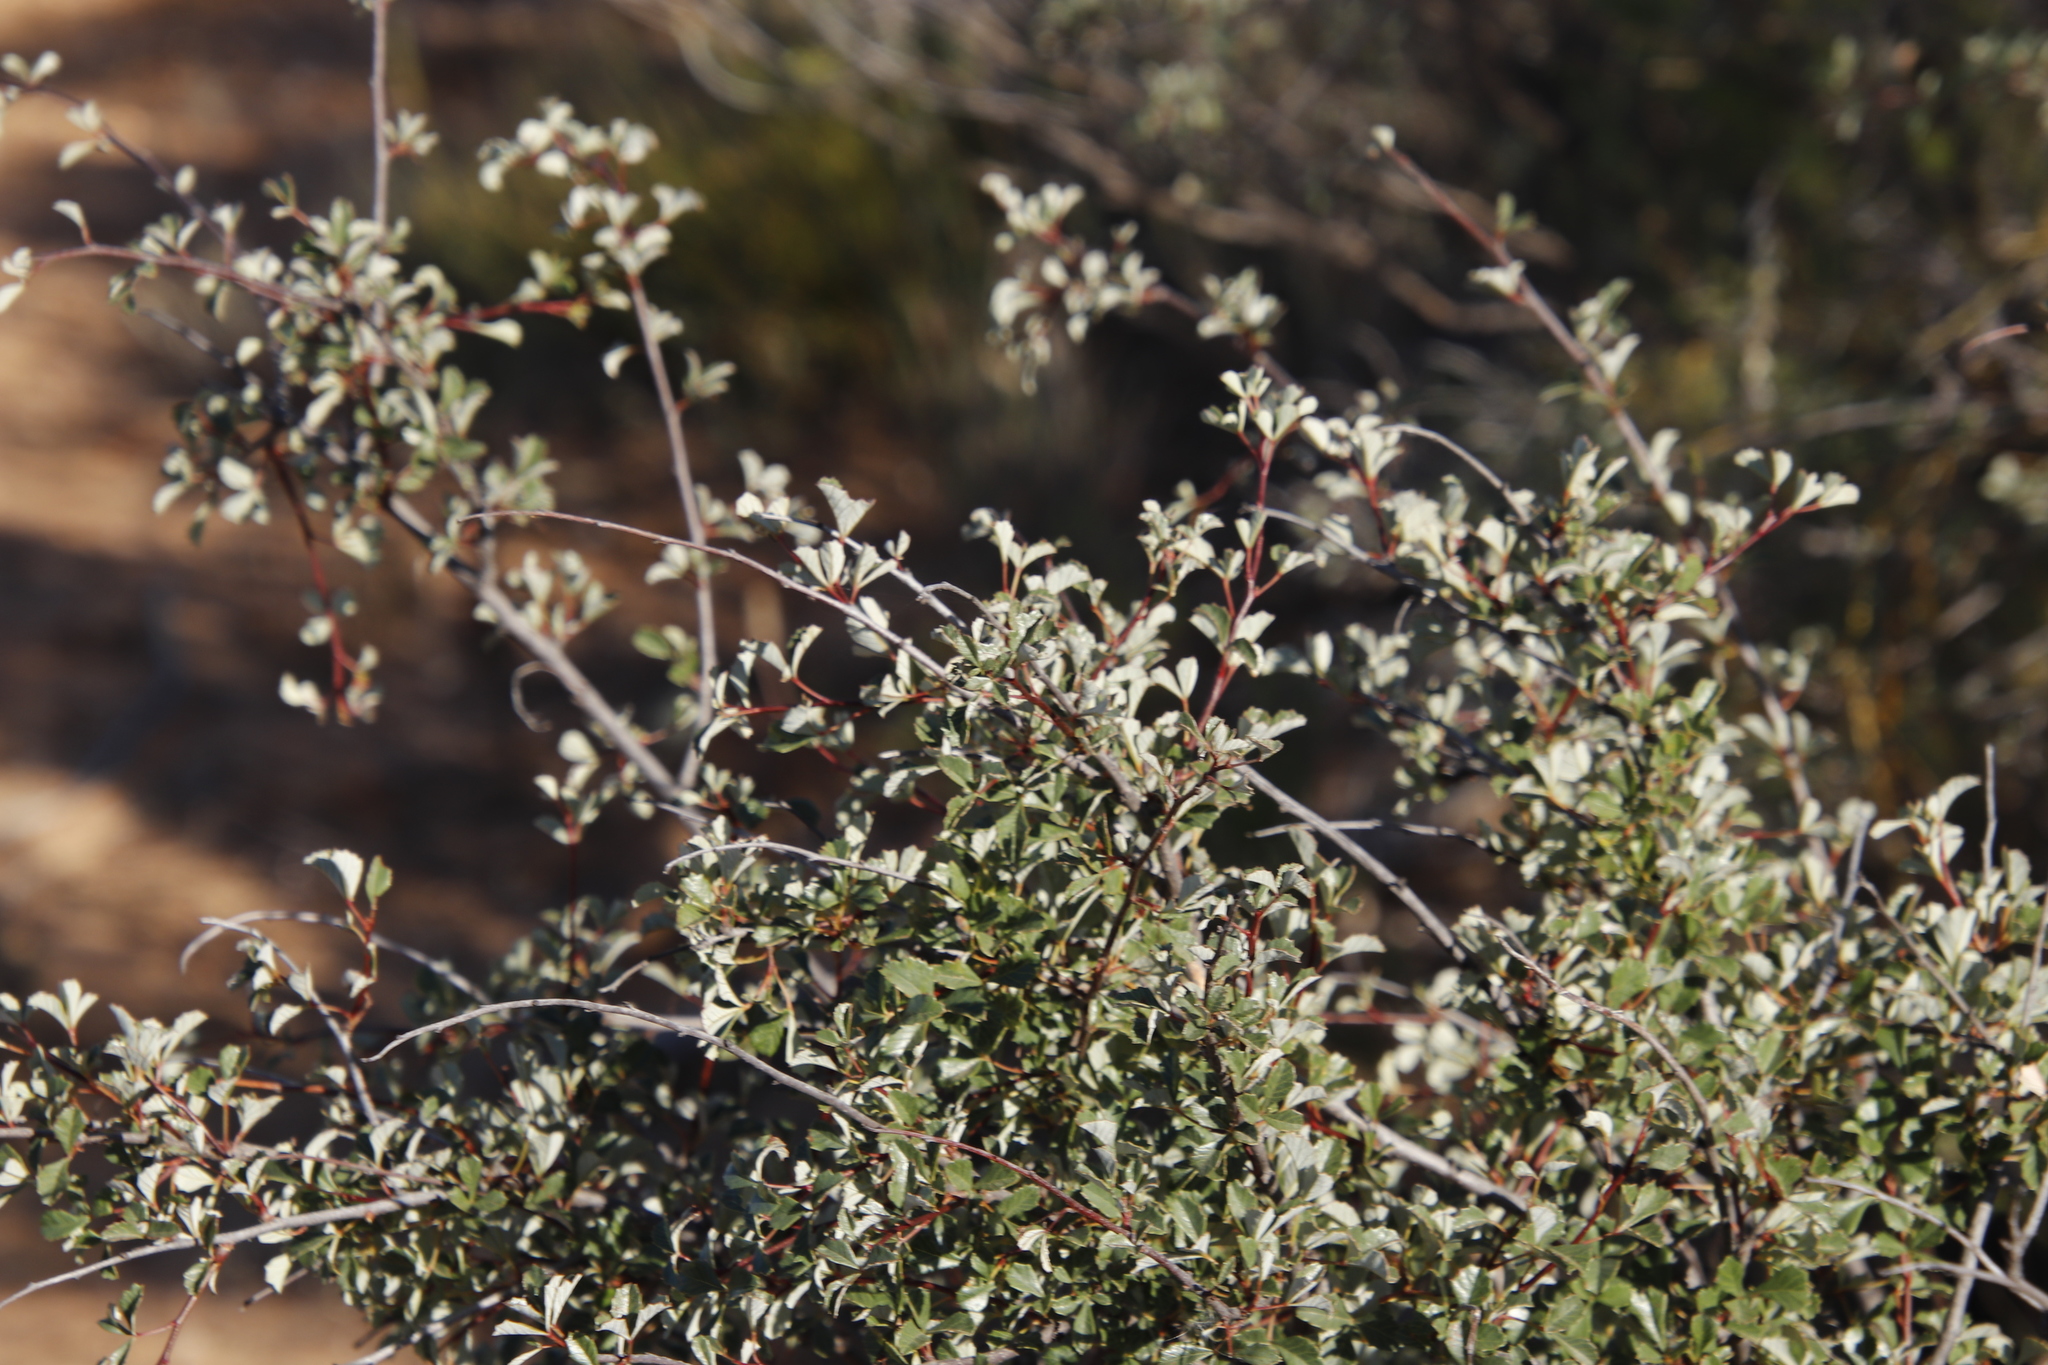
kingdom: Plantae
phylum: Tracheophyta
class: Magnoliopsida
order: Sapindales
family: Anacardiaceae
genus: Searsia
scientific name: Searsia dissecta
